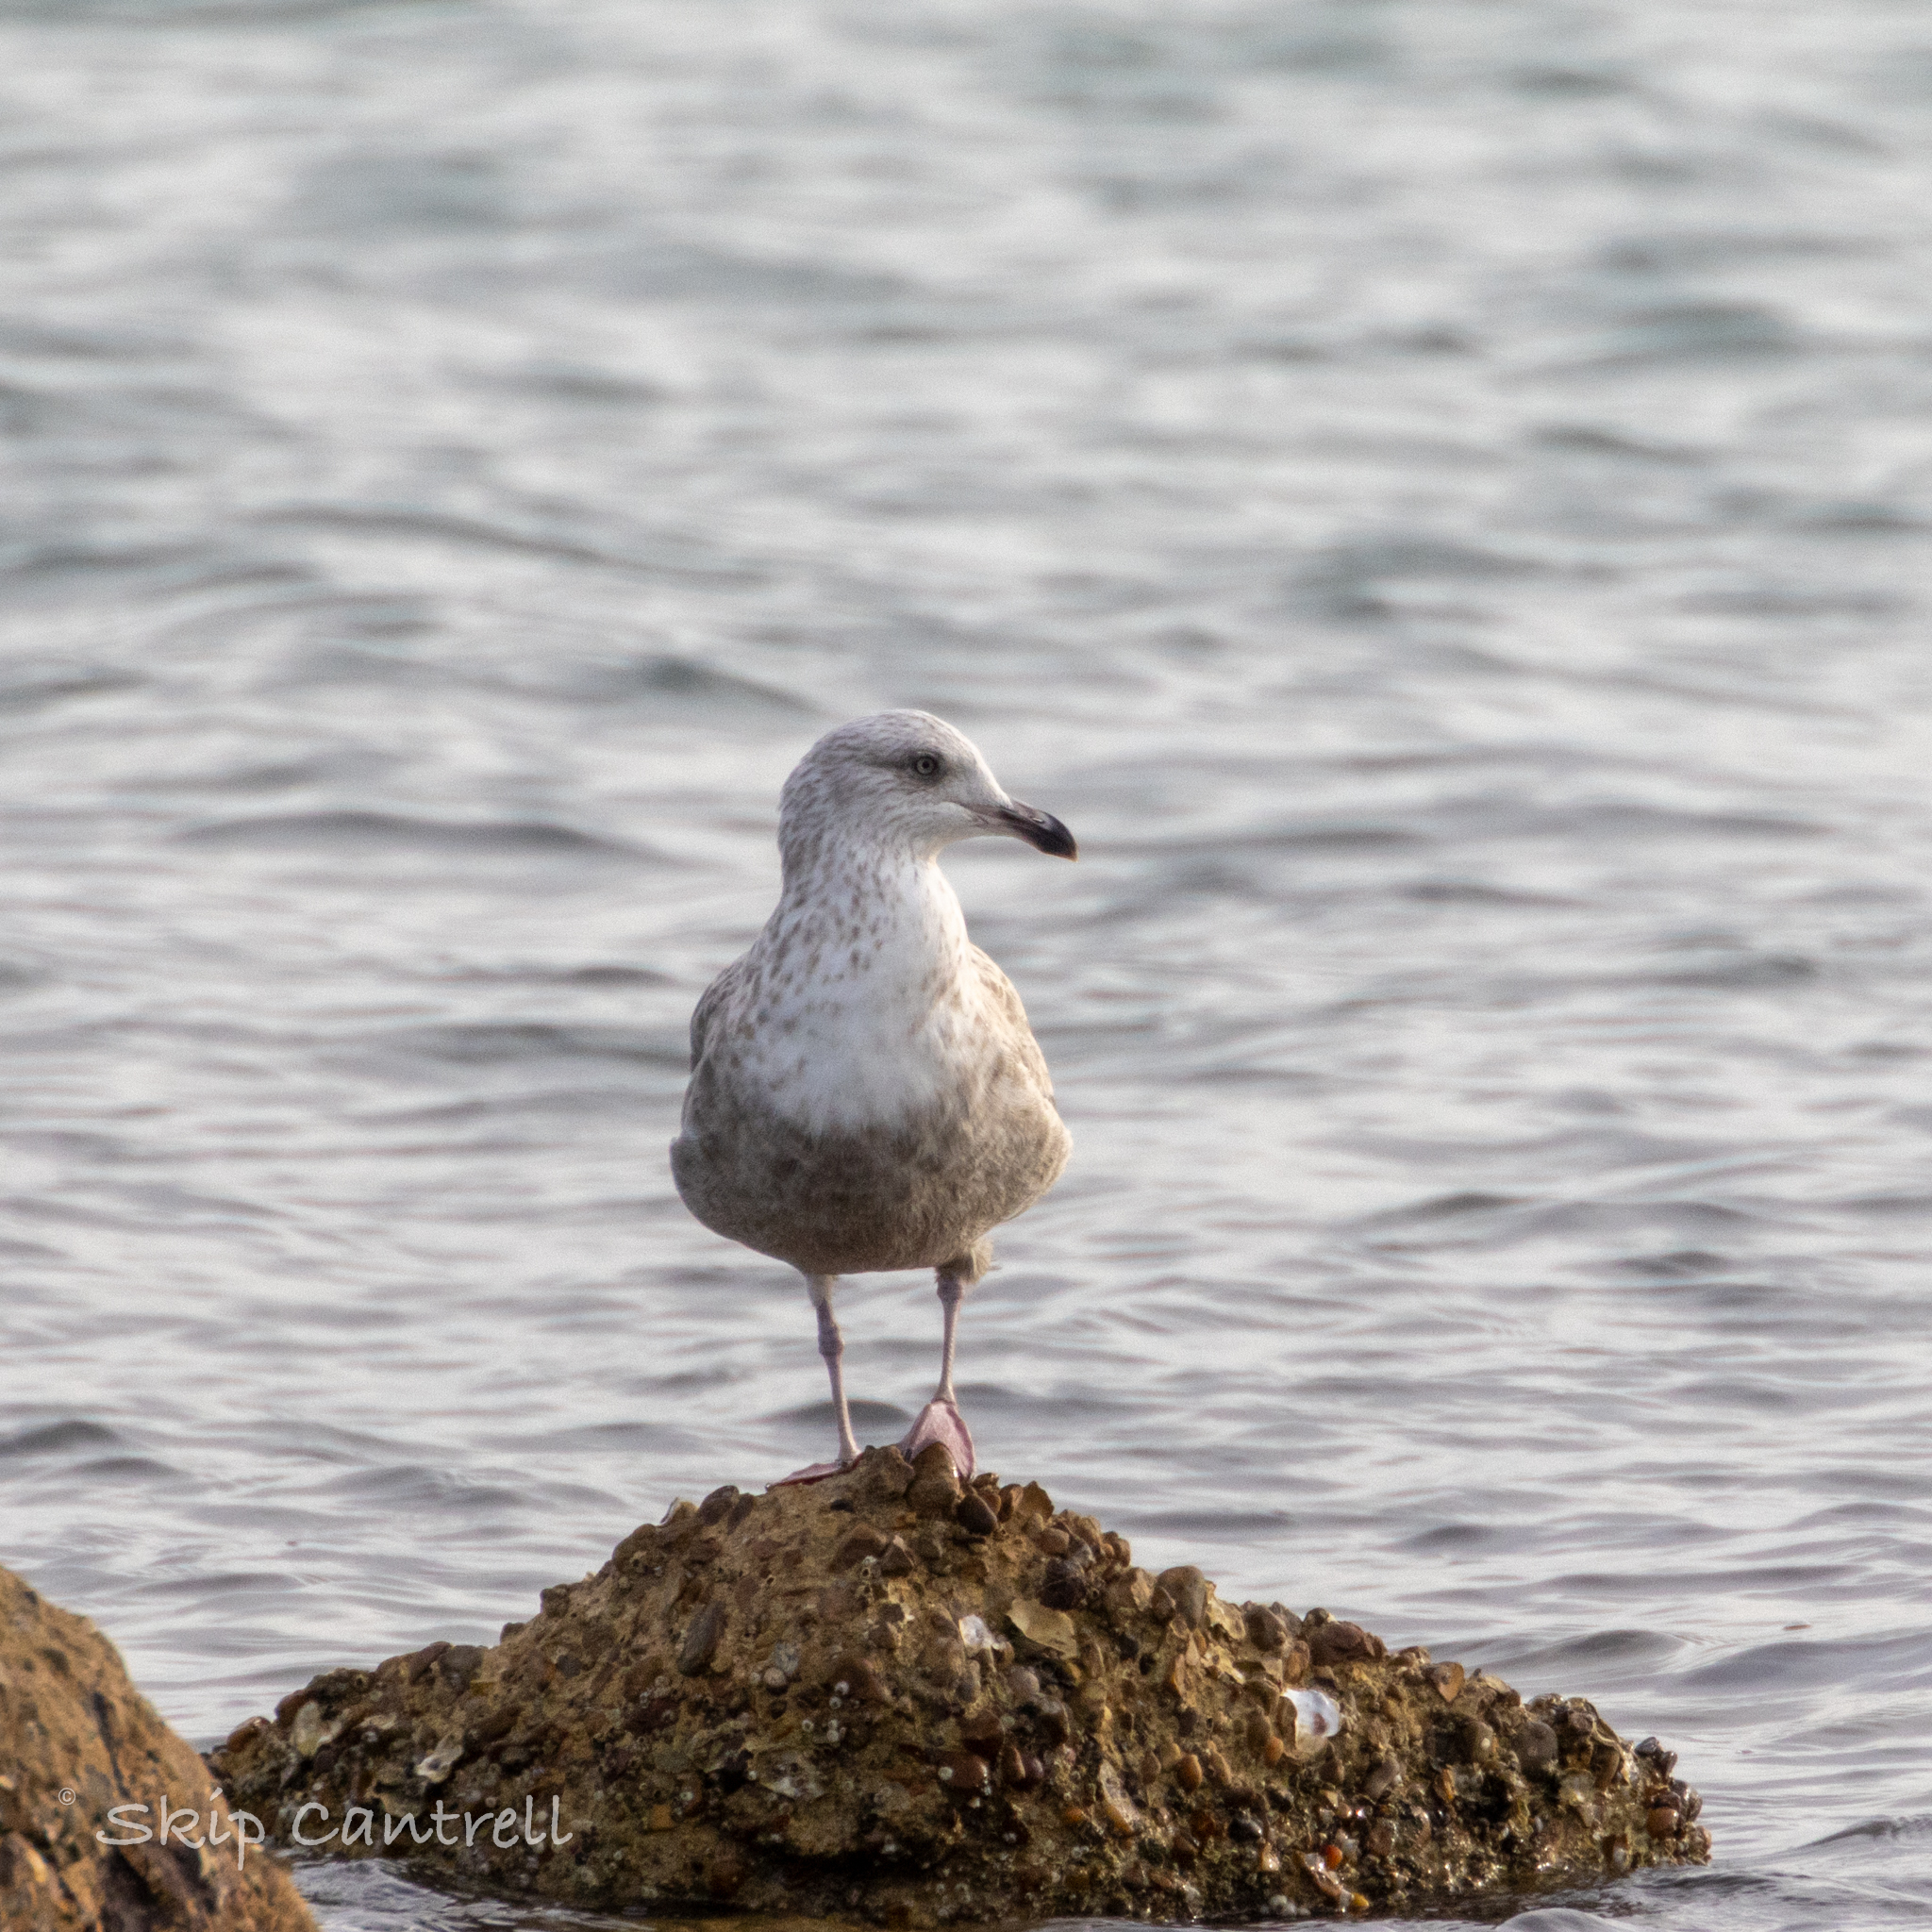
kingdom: Animalia
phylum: Chordata
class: Aves
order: Charadriiformes
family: Laridae
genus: Larus
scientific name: Larus argentatus
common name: Herring gull
